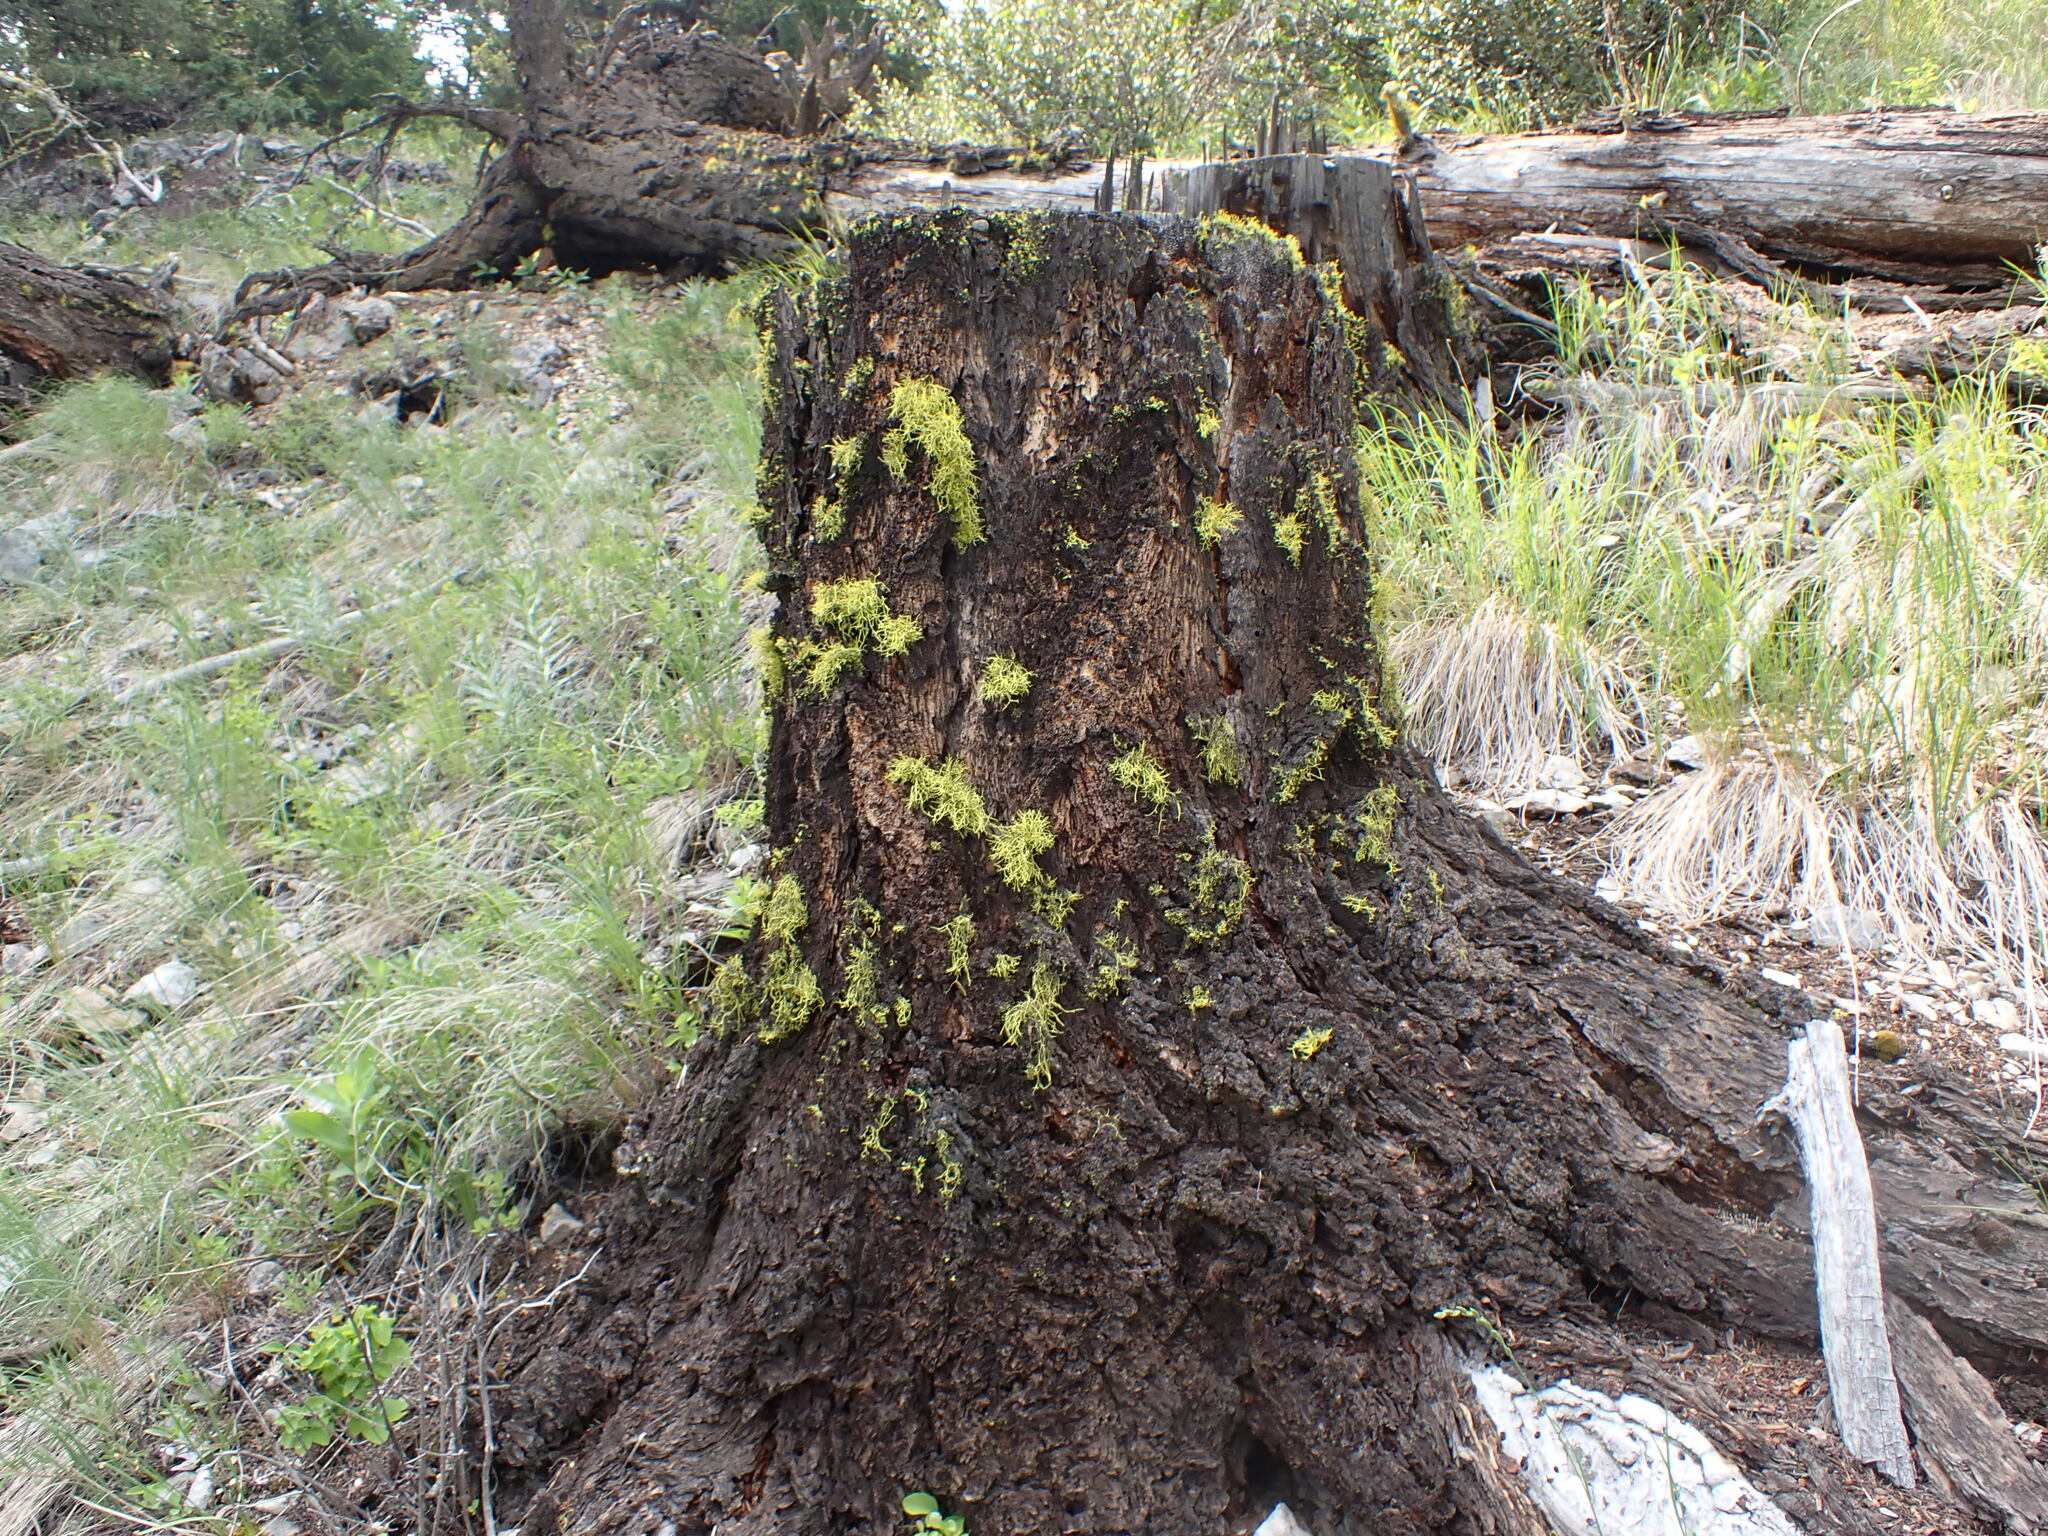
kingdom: Fungi
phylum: Ascomycota
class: Lecanoromycetes
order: Lecanorales
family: Parmeliaceae
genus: Letharia
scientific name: Letharia vulpina
